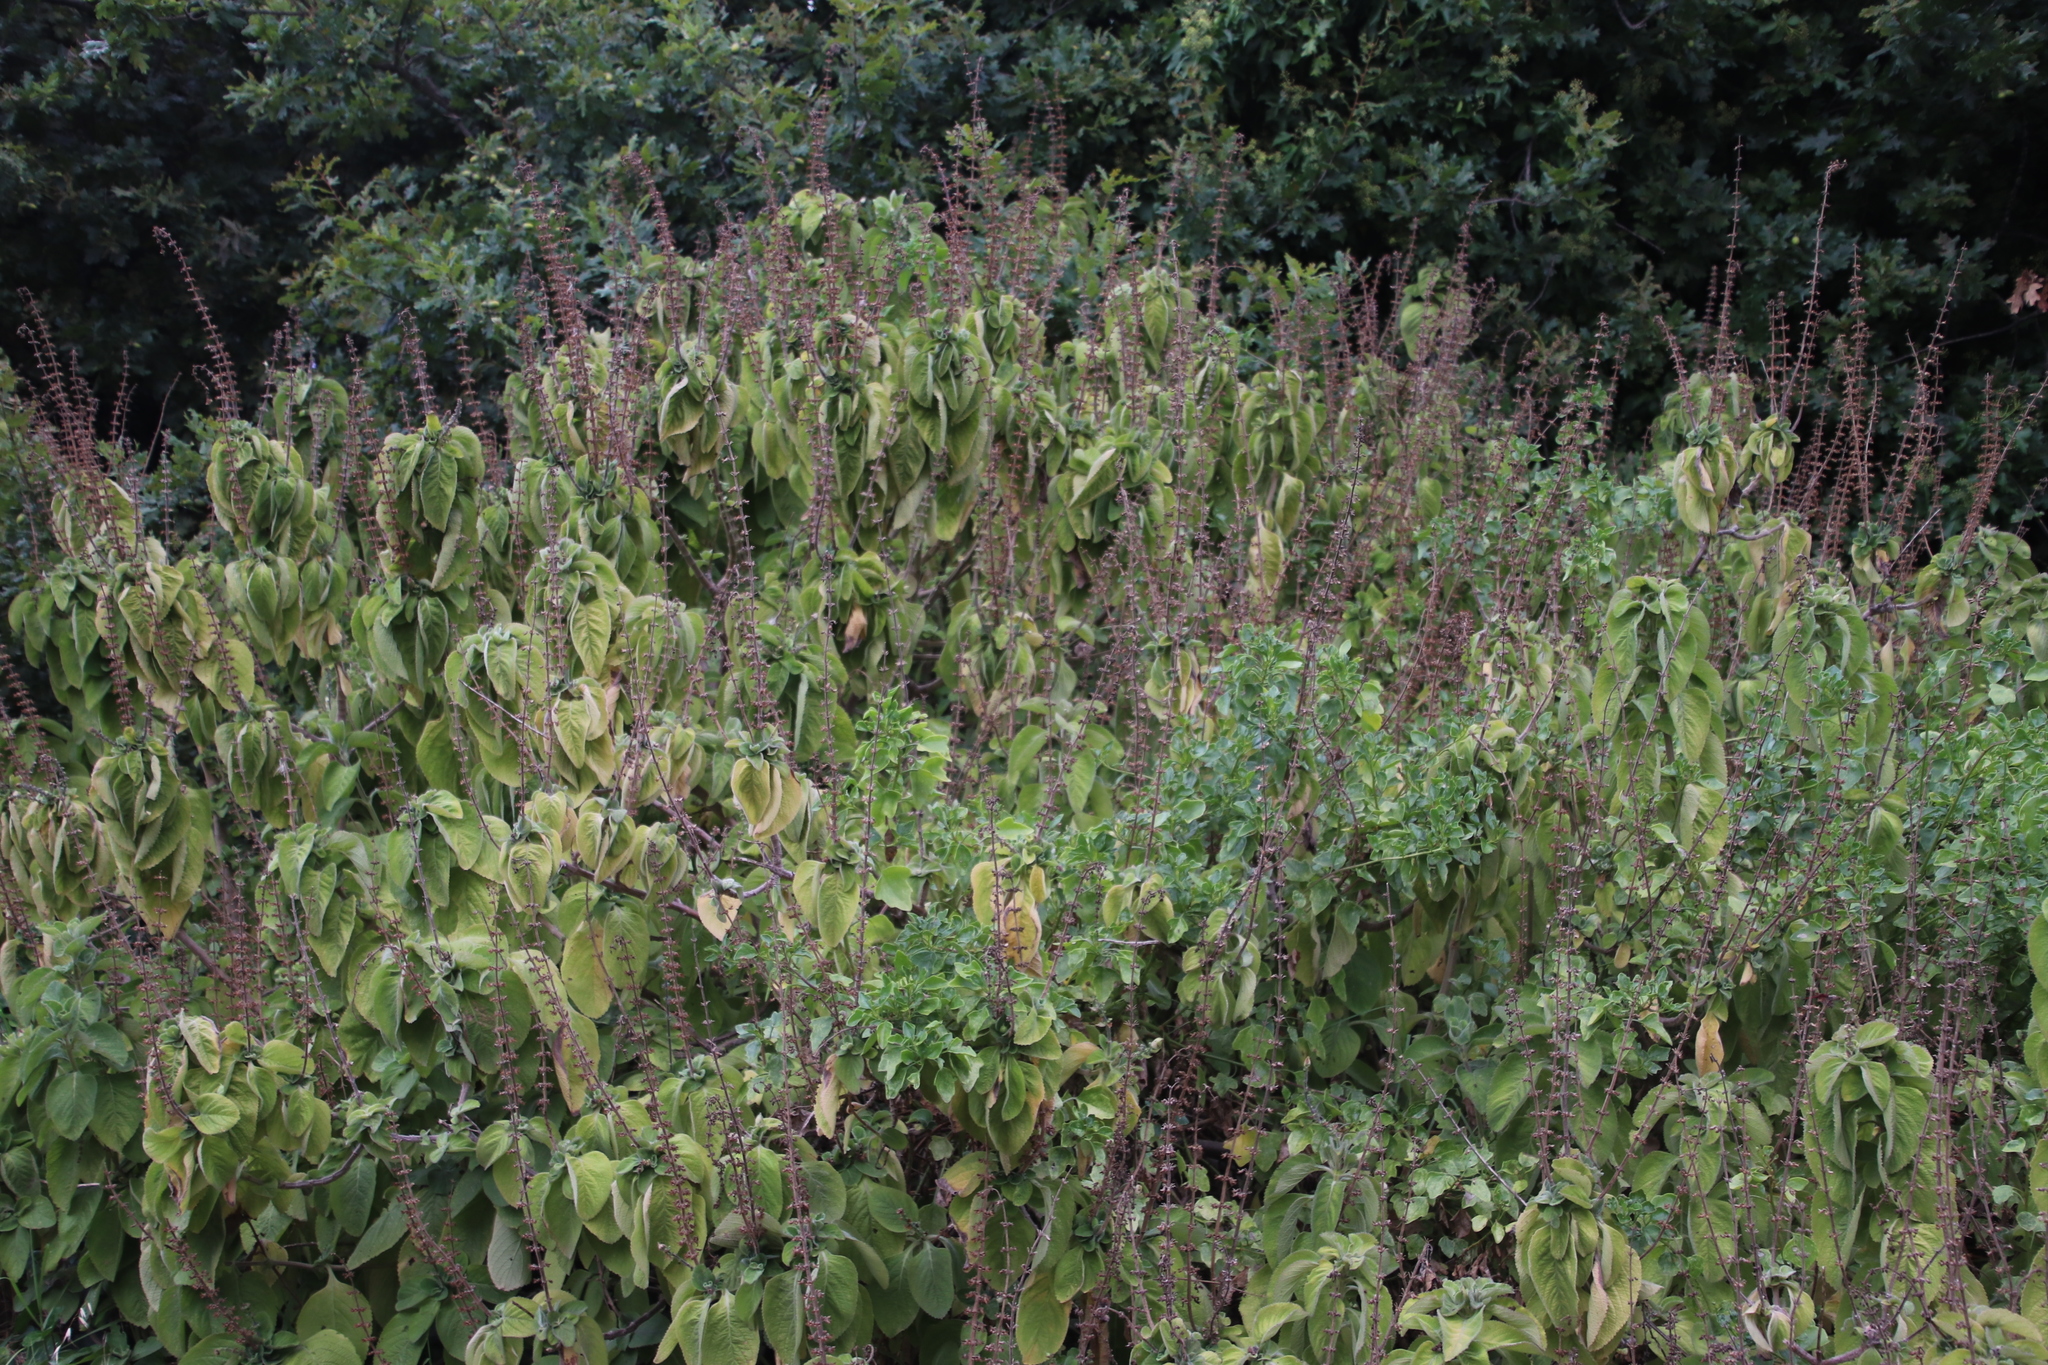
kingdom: Plantae
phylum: Tracheophyta
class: Magnoliopsida
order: Lamiales
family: Lamiaceae
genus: Coleus
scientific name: Coleus barbatus
